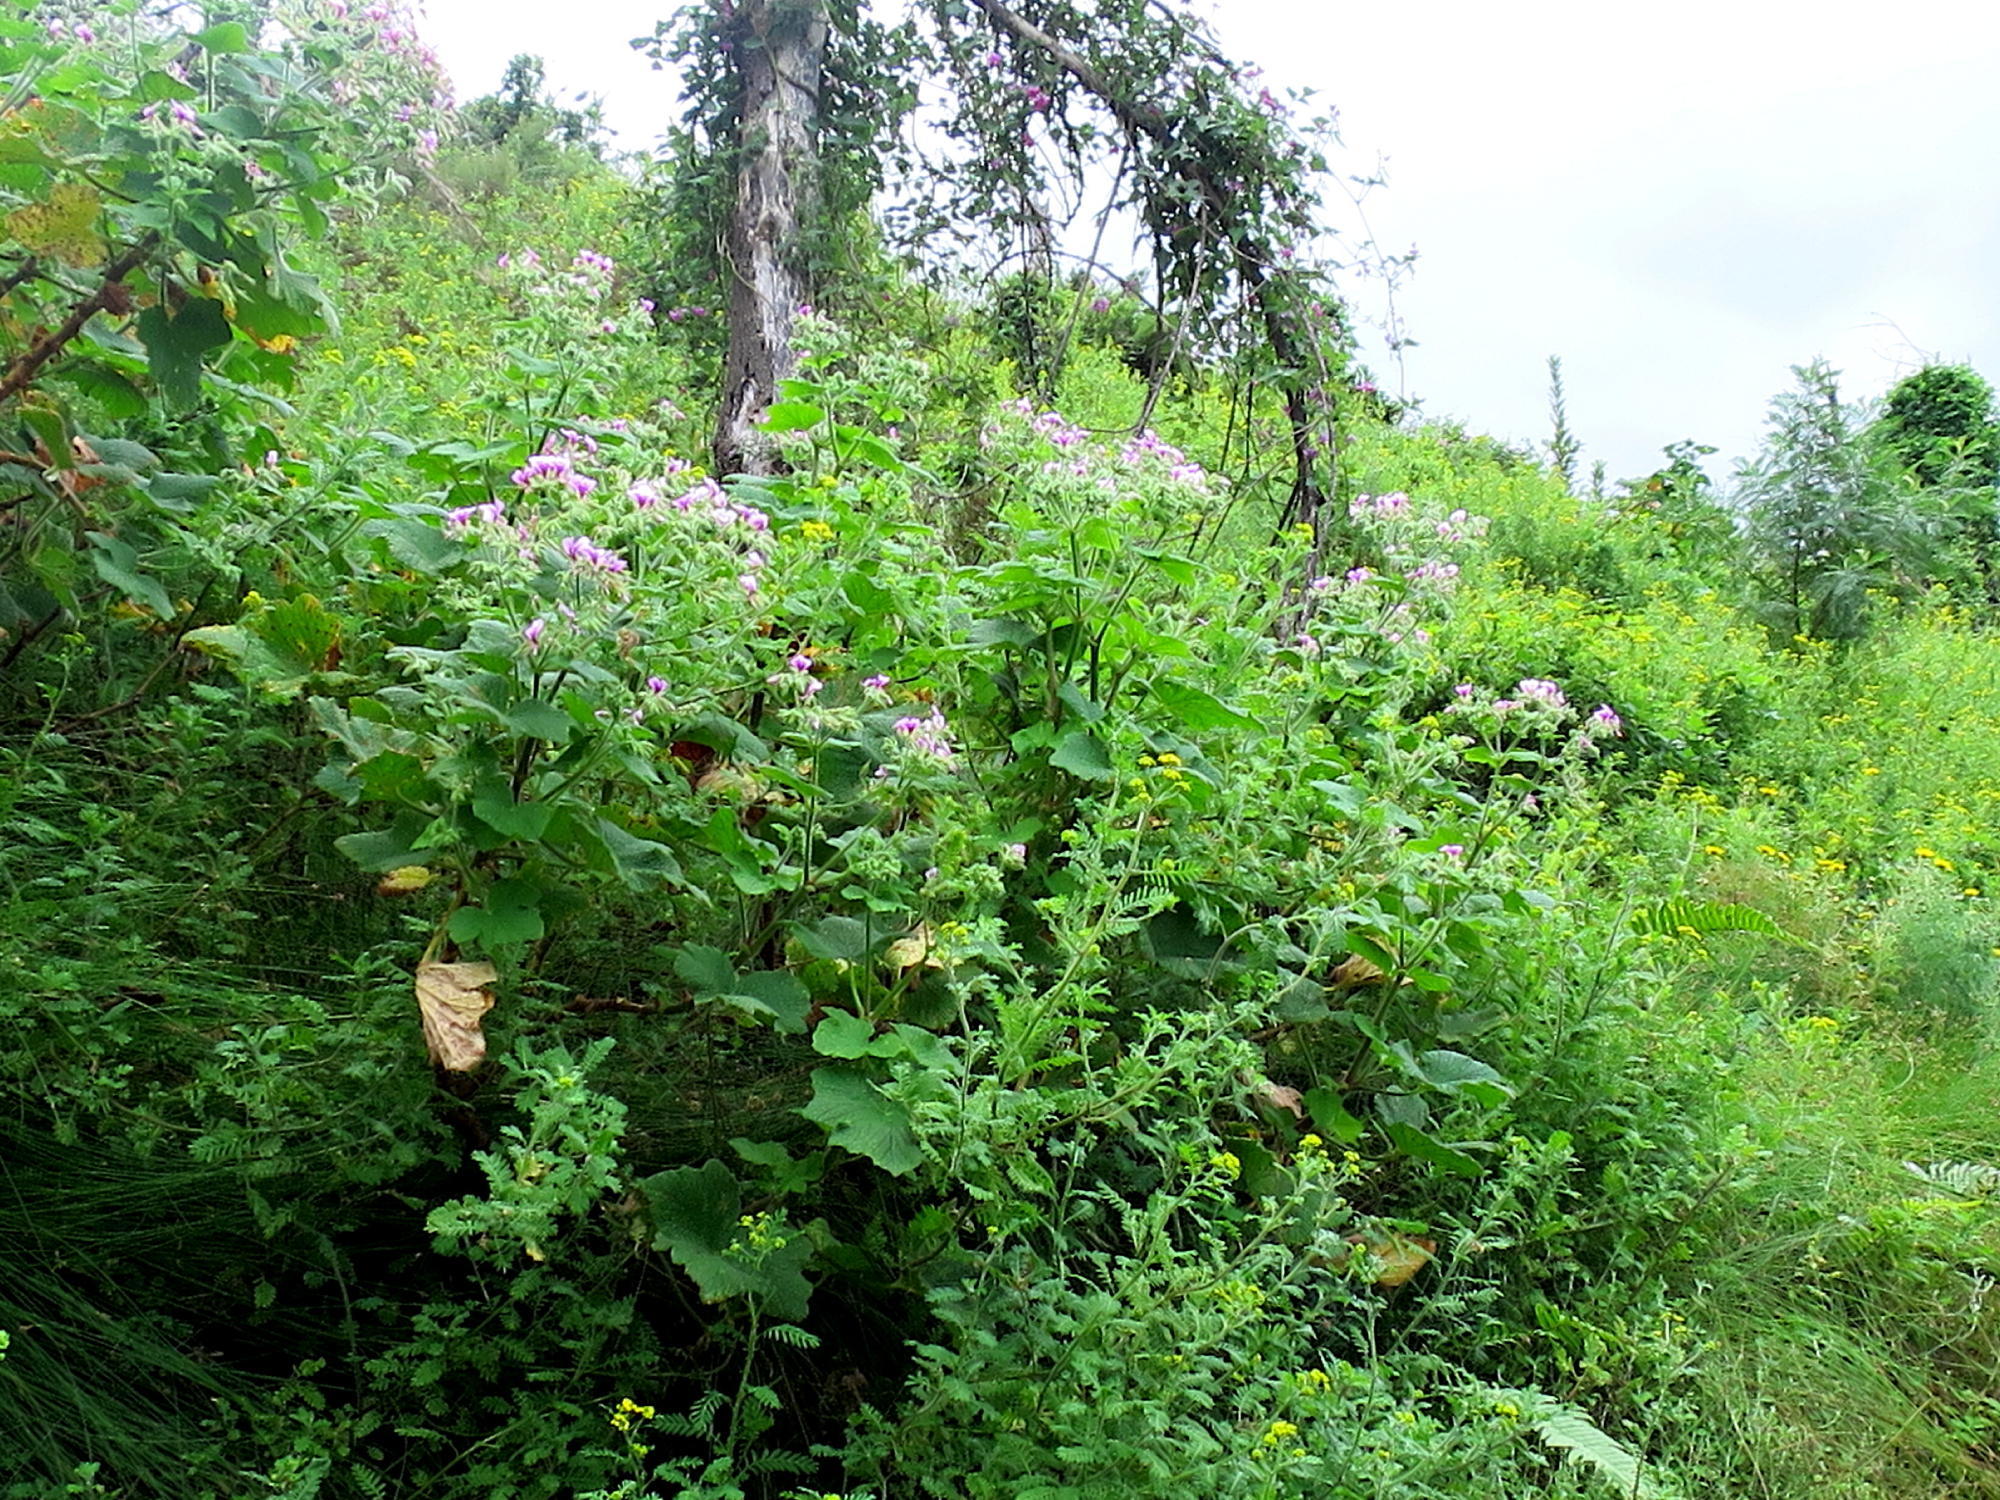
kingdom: Plantae
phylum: Tracheophyta
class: Magnoliopsida
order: Geraniales
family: Geraniaceae
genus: Pelargonium
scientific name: Pelargonium papilionaceum
